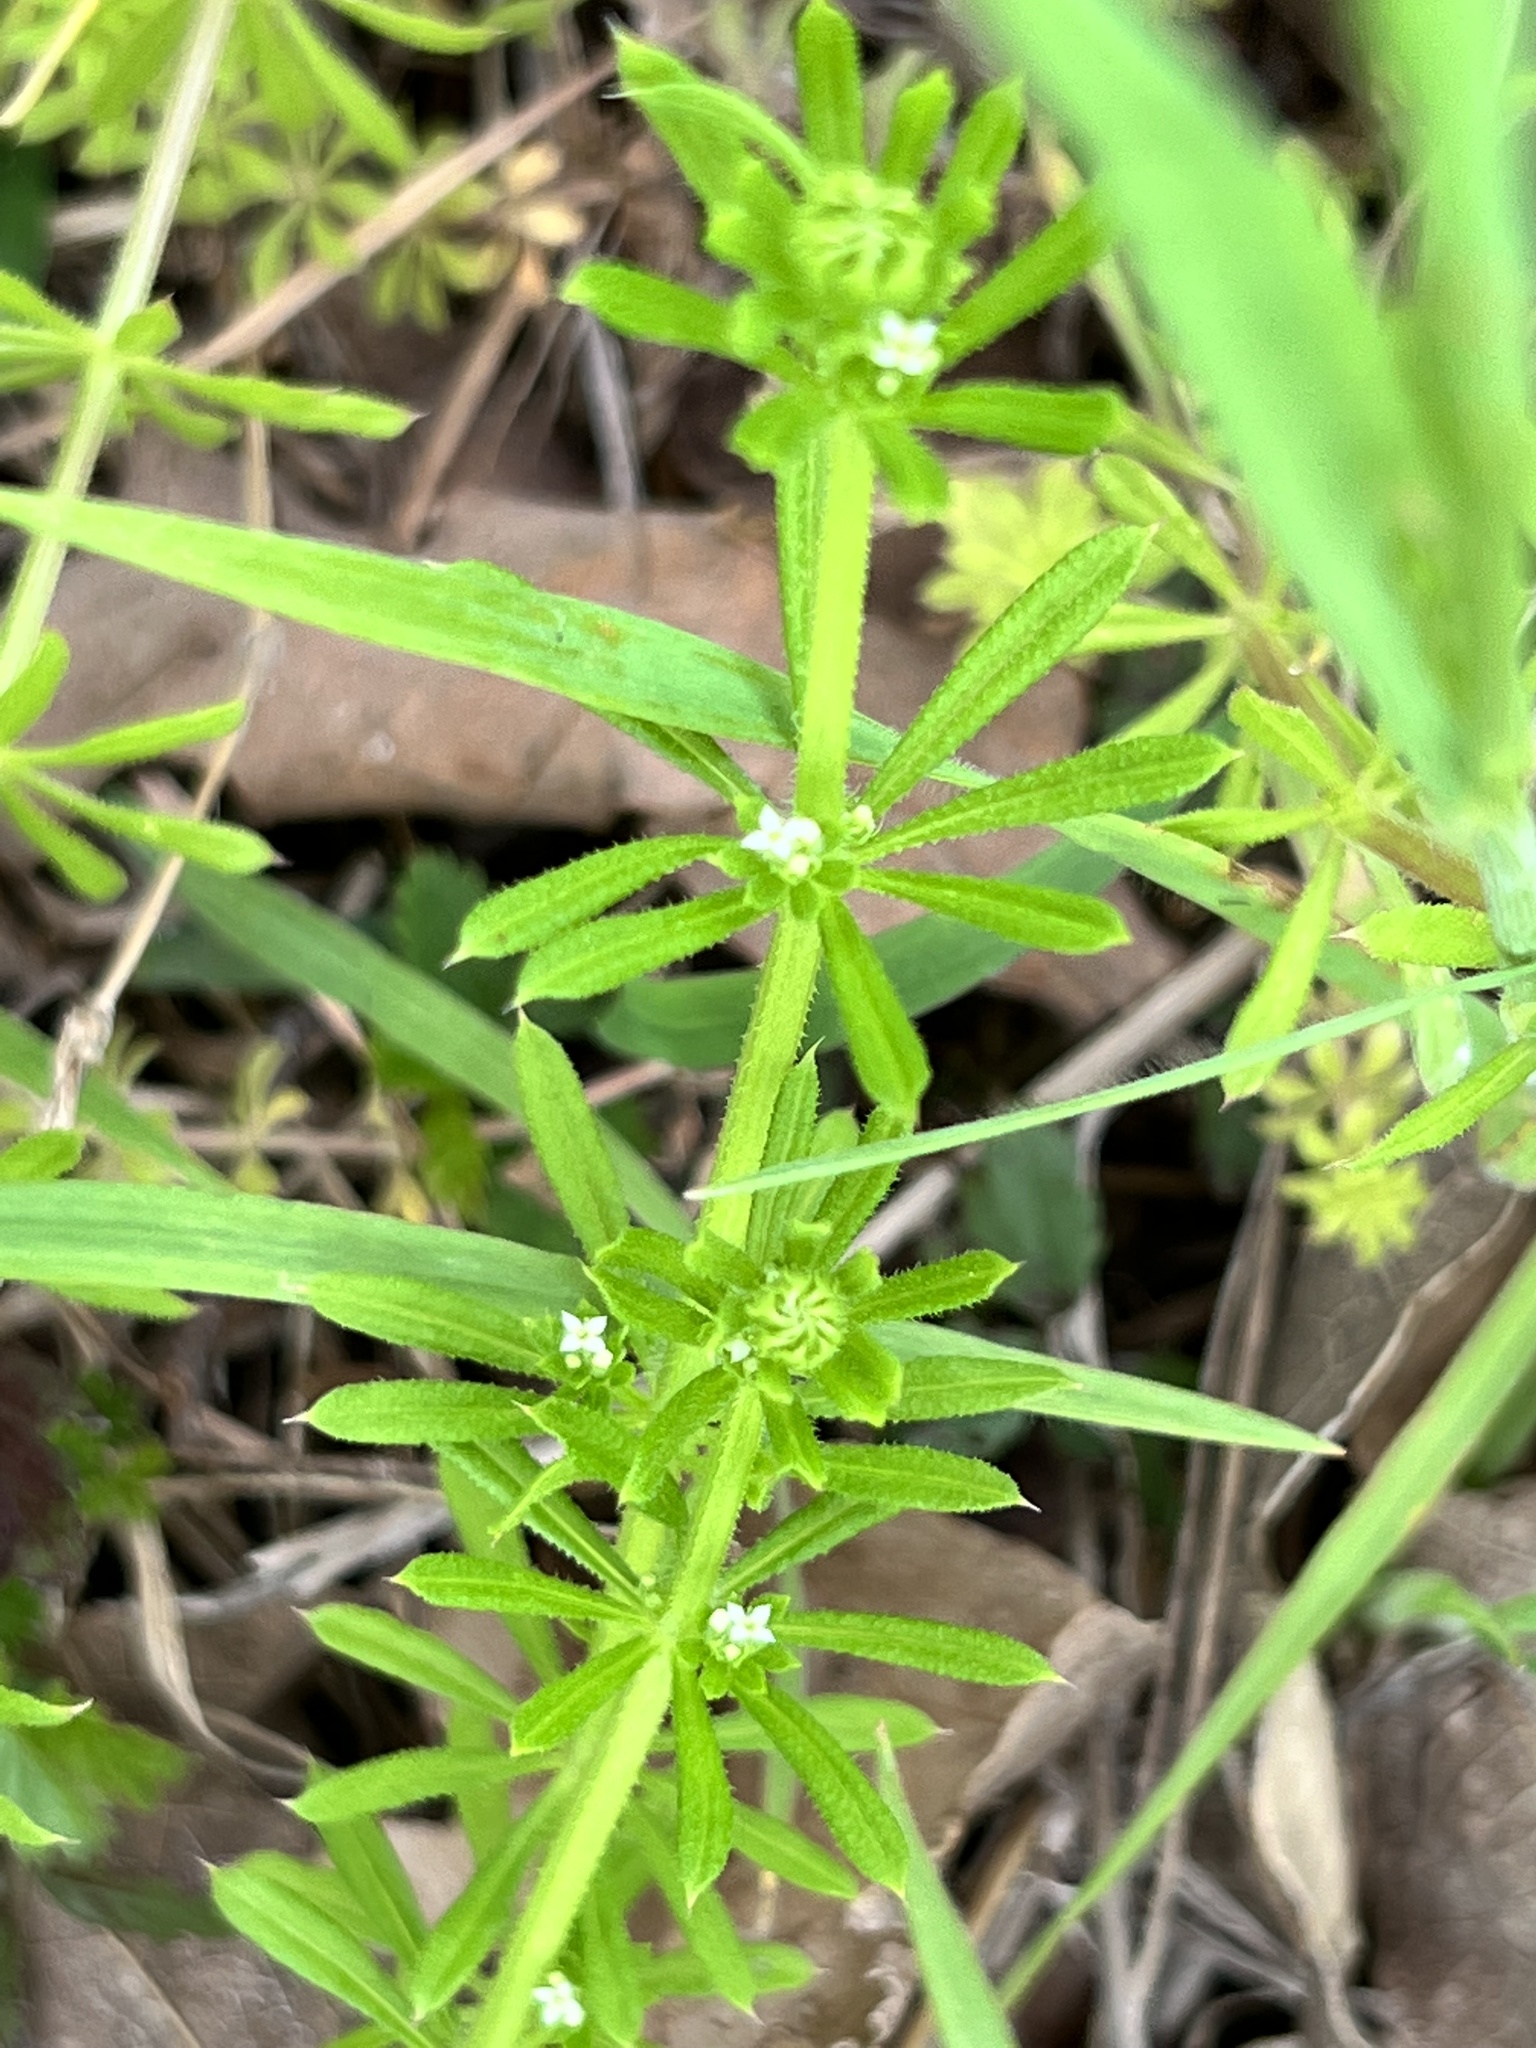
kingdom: Plantae
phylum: Tracheophyta
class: Magnoliopsida
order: Gentianales
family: Rubiaceae
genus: Galium
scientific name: Galium aparine
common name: Cleavers
